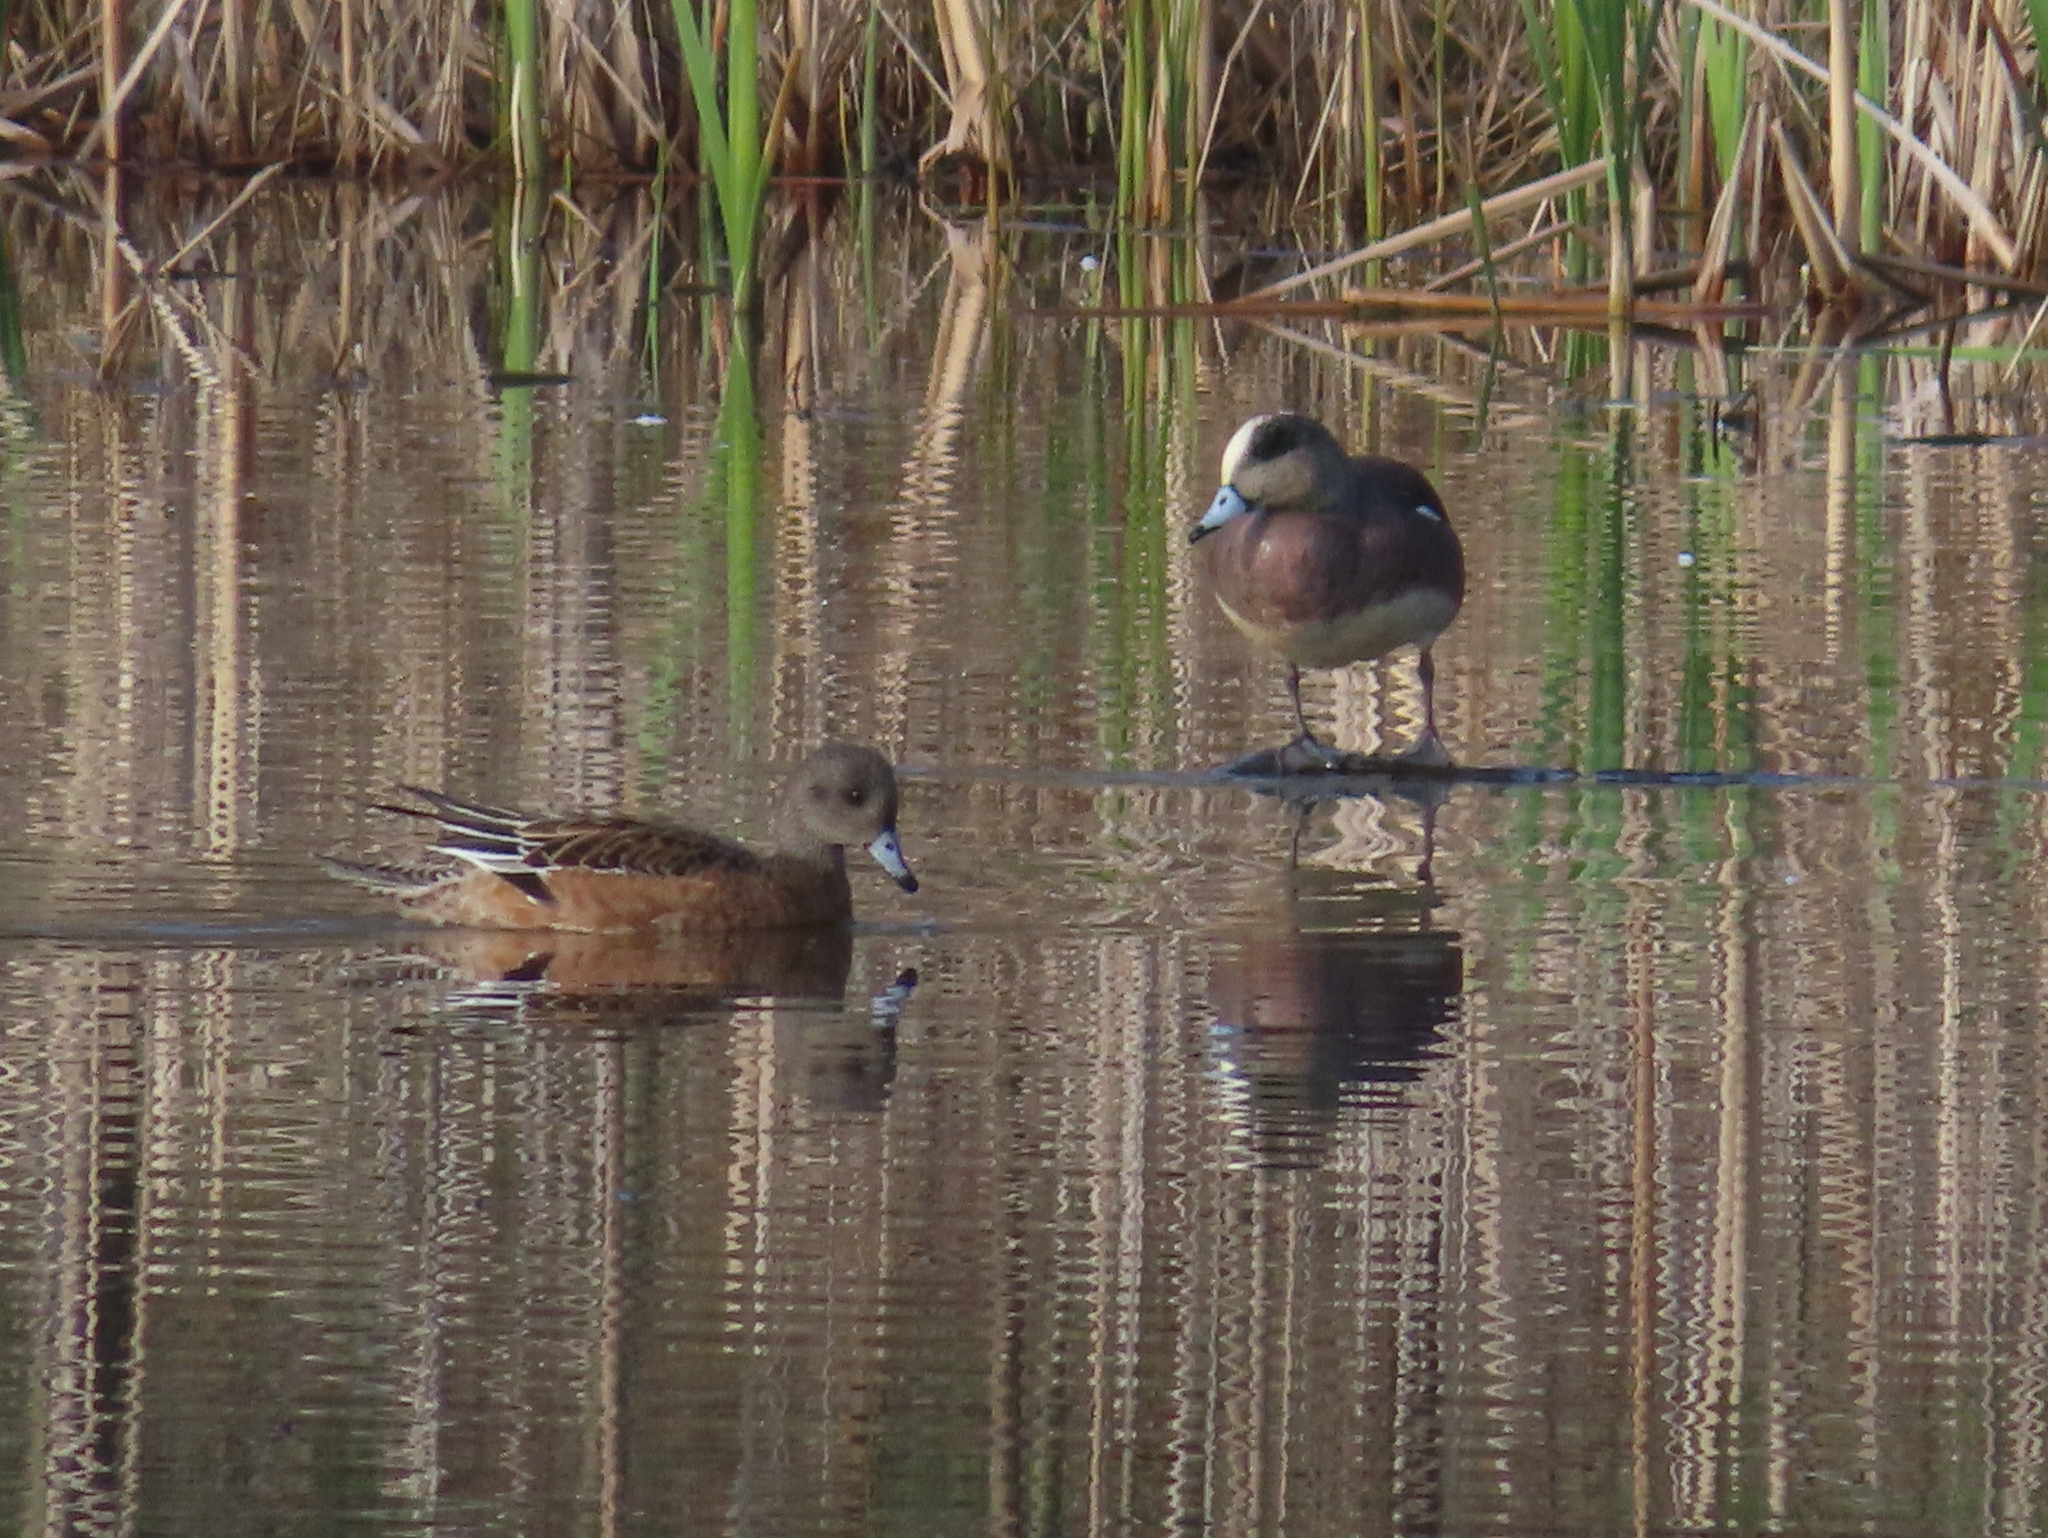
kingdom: Animalia
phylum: Chordata
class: Aves
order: Anseriformes
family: Anatidae
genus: Mareca
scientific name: Mareca americana
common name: American wigeon
